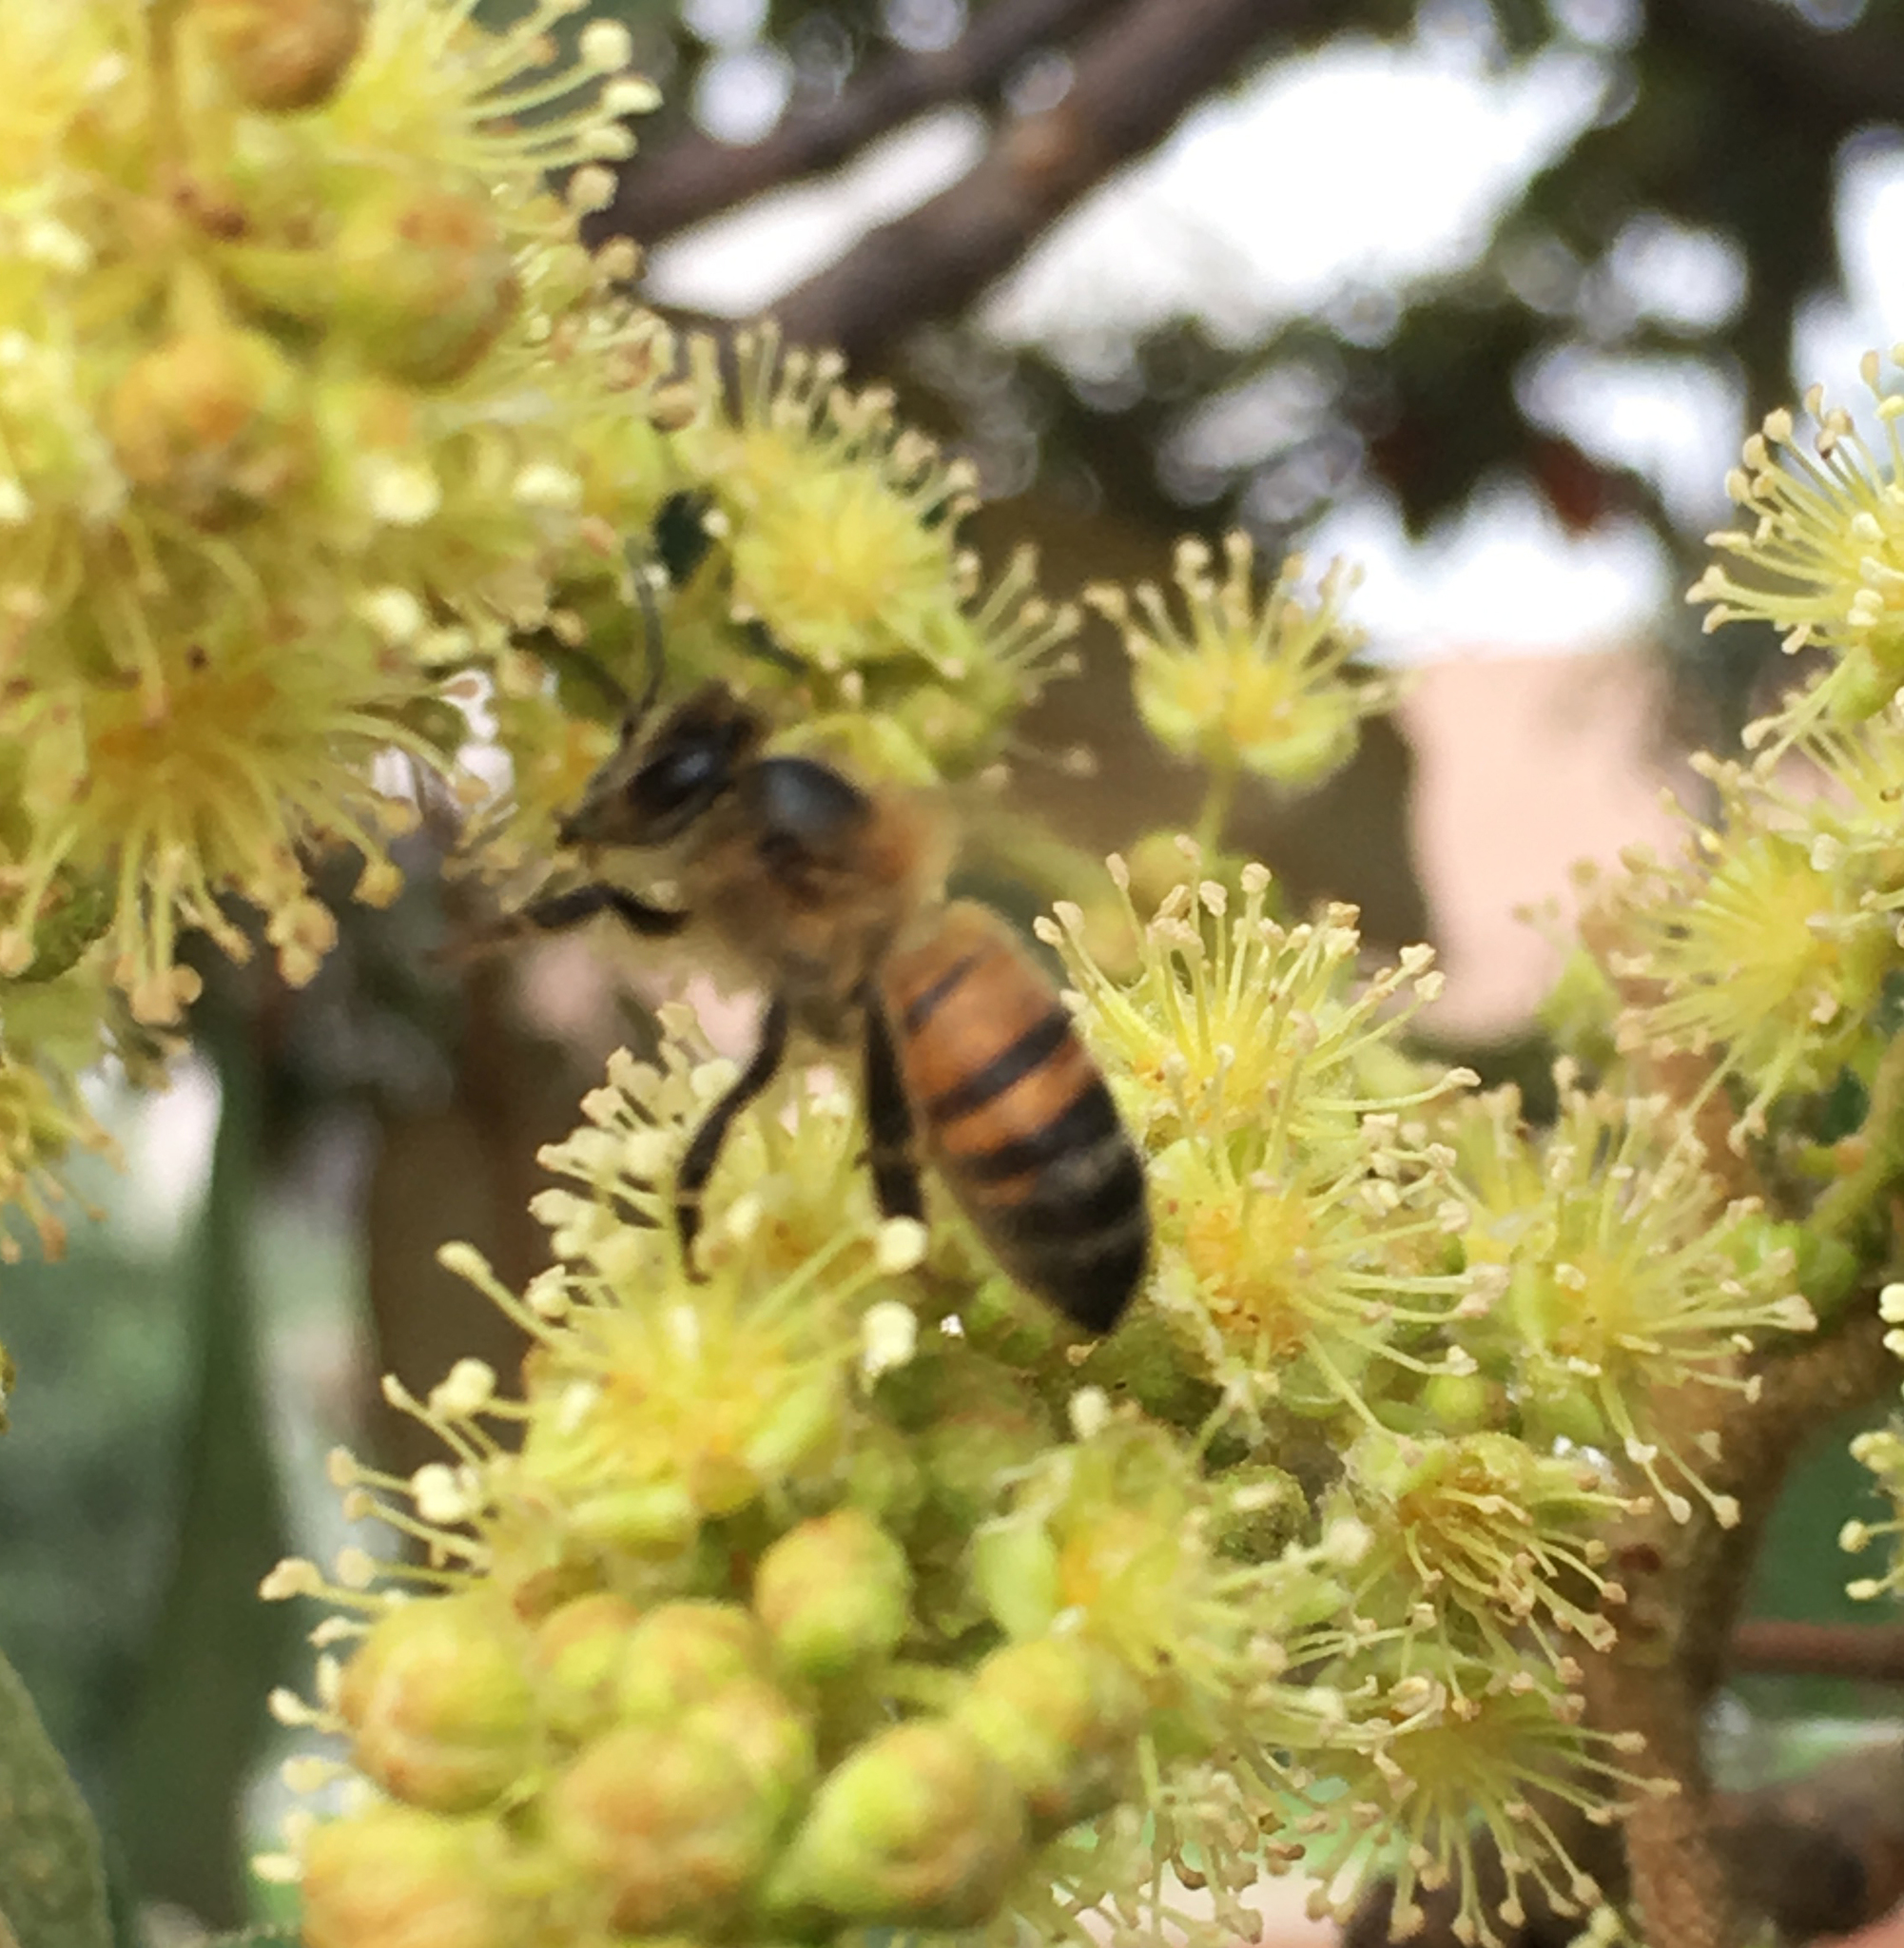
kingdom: Animalia
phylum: Arthropoda
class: Insecta
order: Hymenoptera
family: Apidae
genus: Apis
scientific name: Apis mellifera
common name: Honey bee
